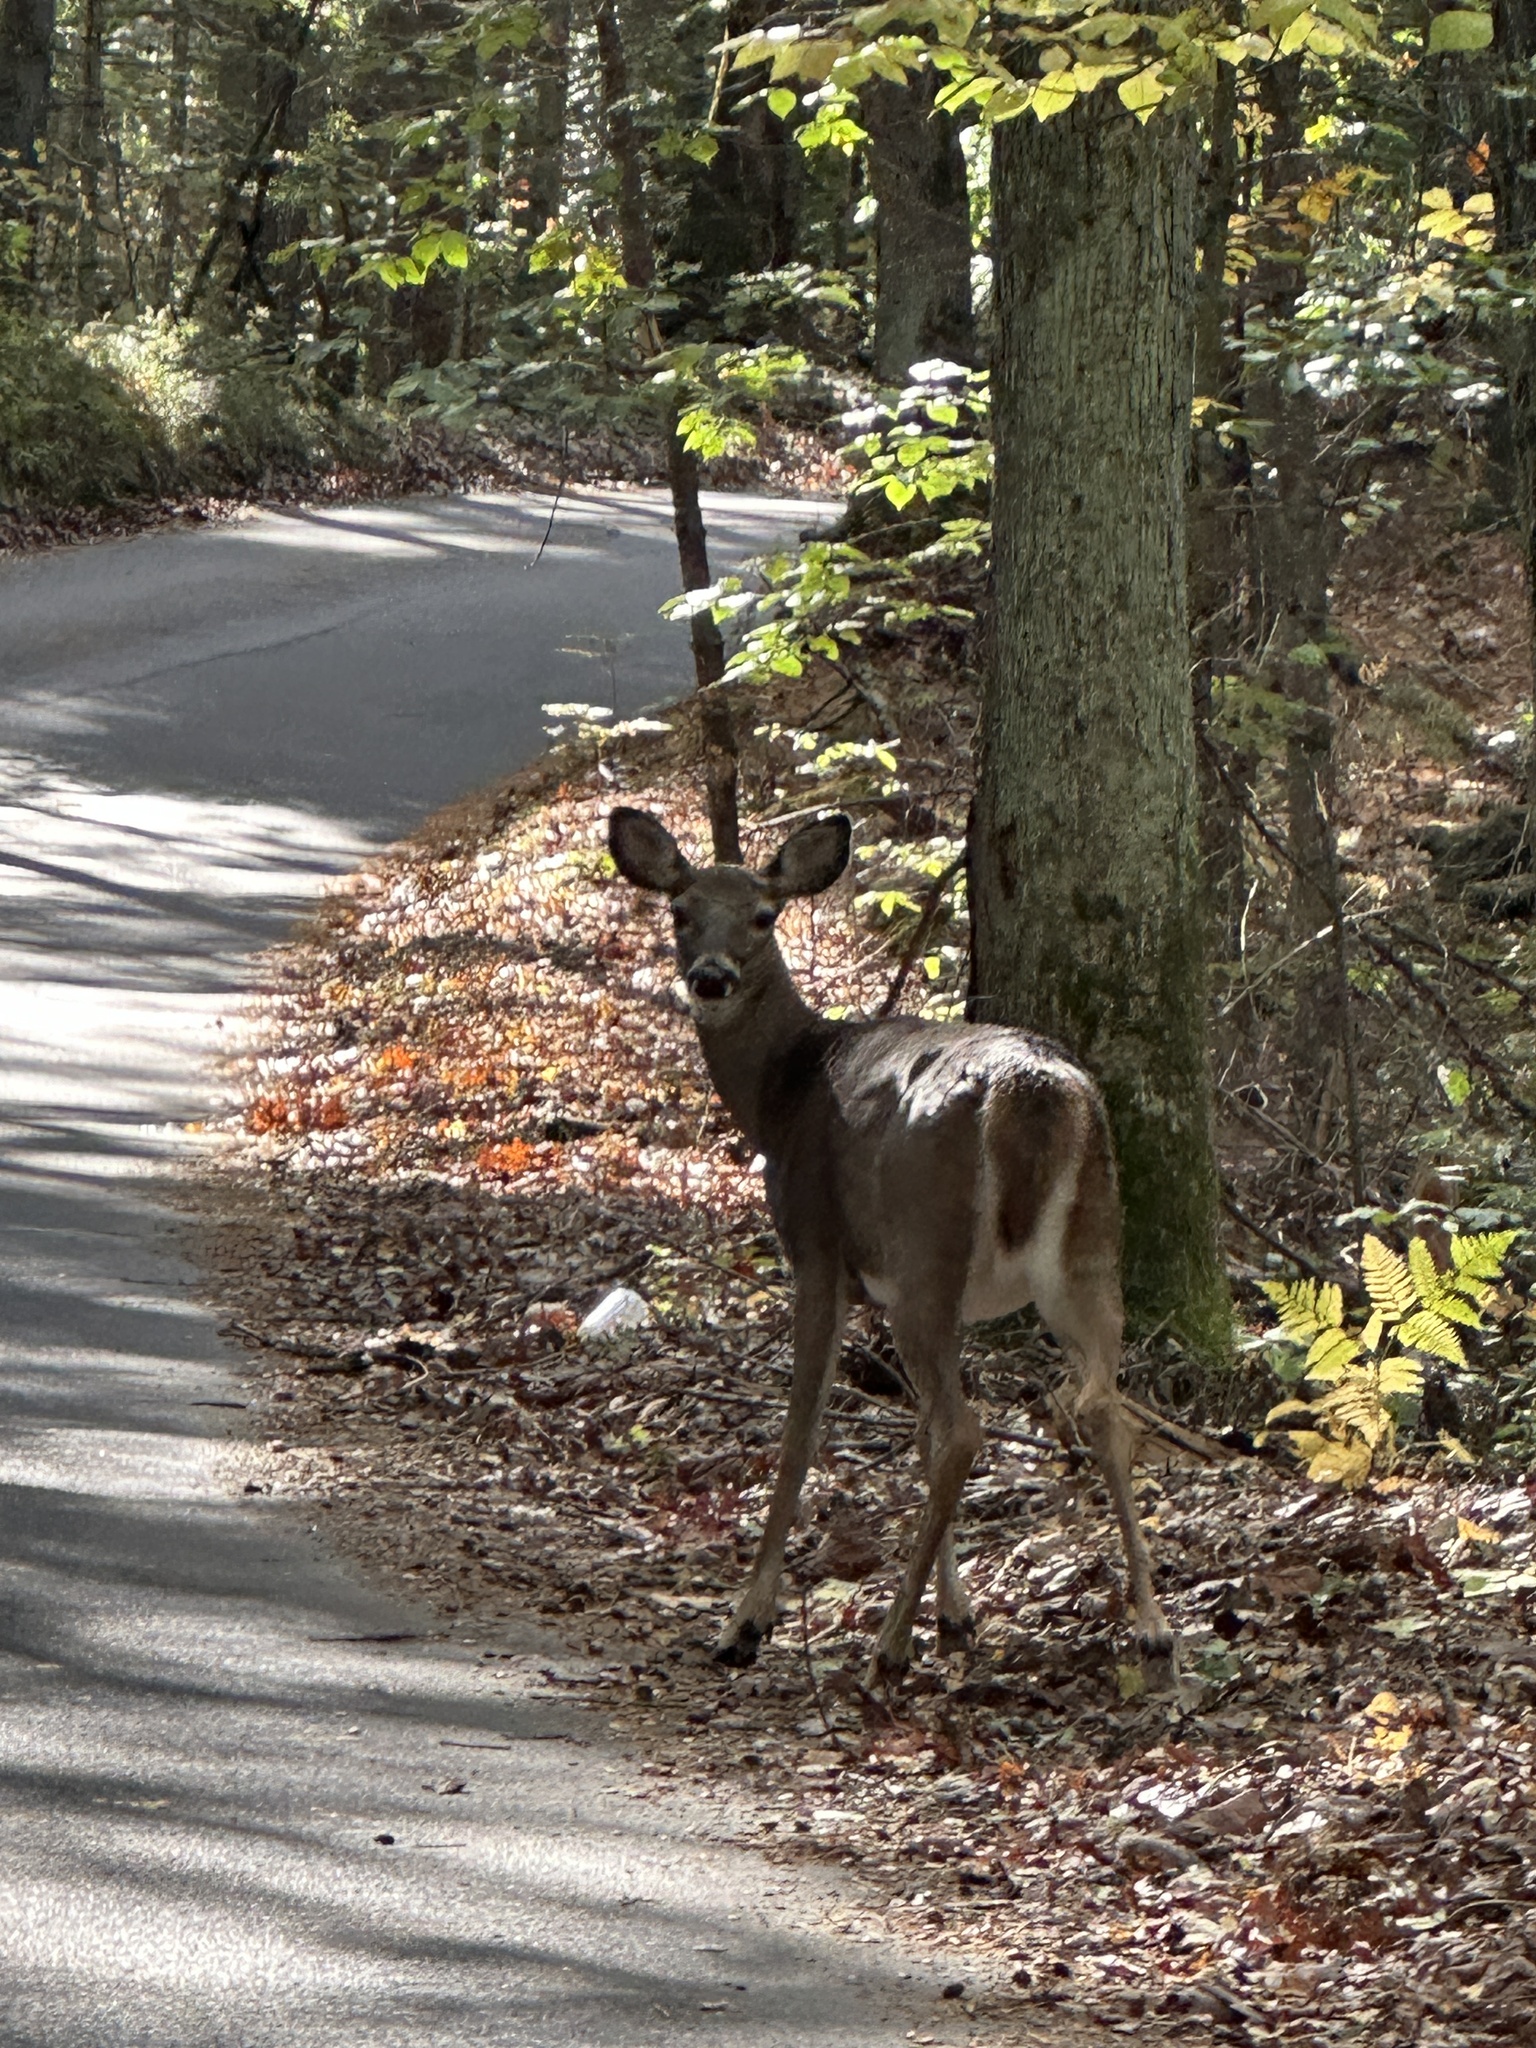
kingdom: Animalia
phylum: Chordata
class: Mammalia
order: Artiodactyla
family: Cervidae
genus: Odocoileus
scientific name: Odocoileus virginianus
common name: White-tailed deer
